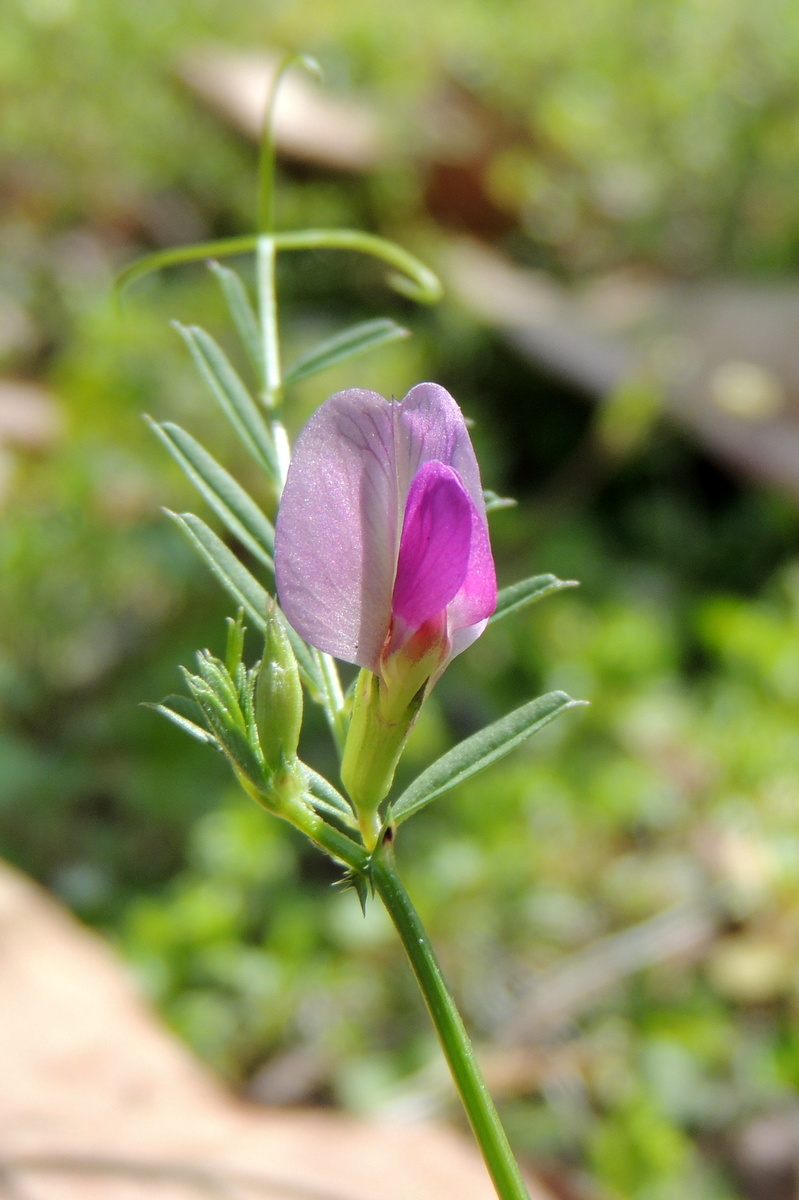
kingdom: Plantae
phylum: Tracheophyta
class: Magnoliopsida
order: Fabales
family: Fabaceae
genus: Vicia
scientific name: Vicia sativa
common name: Garden vetch
